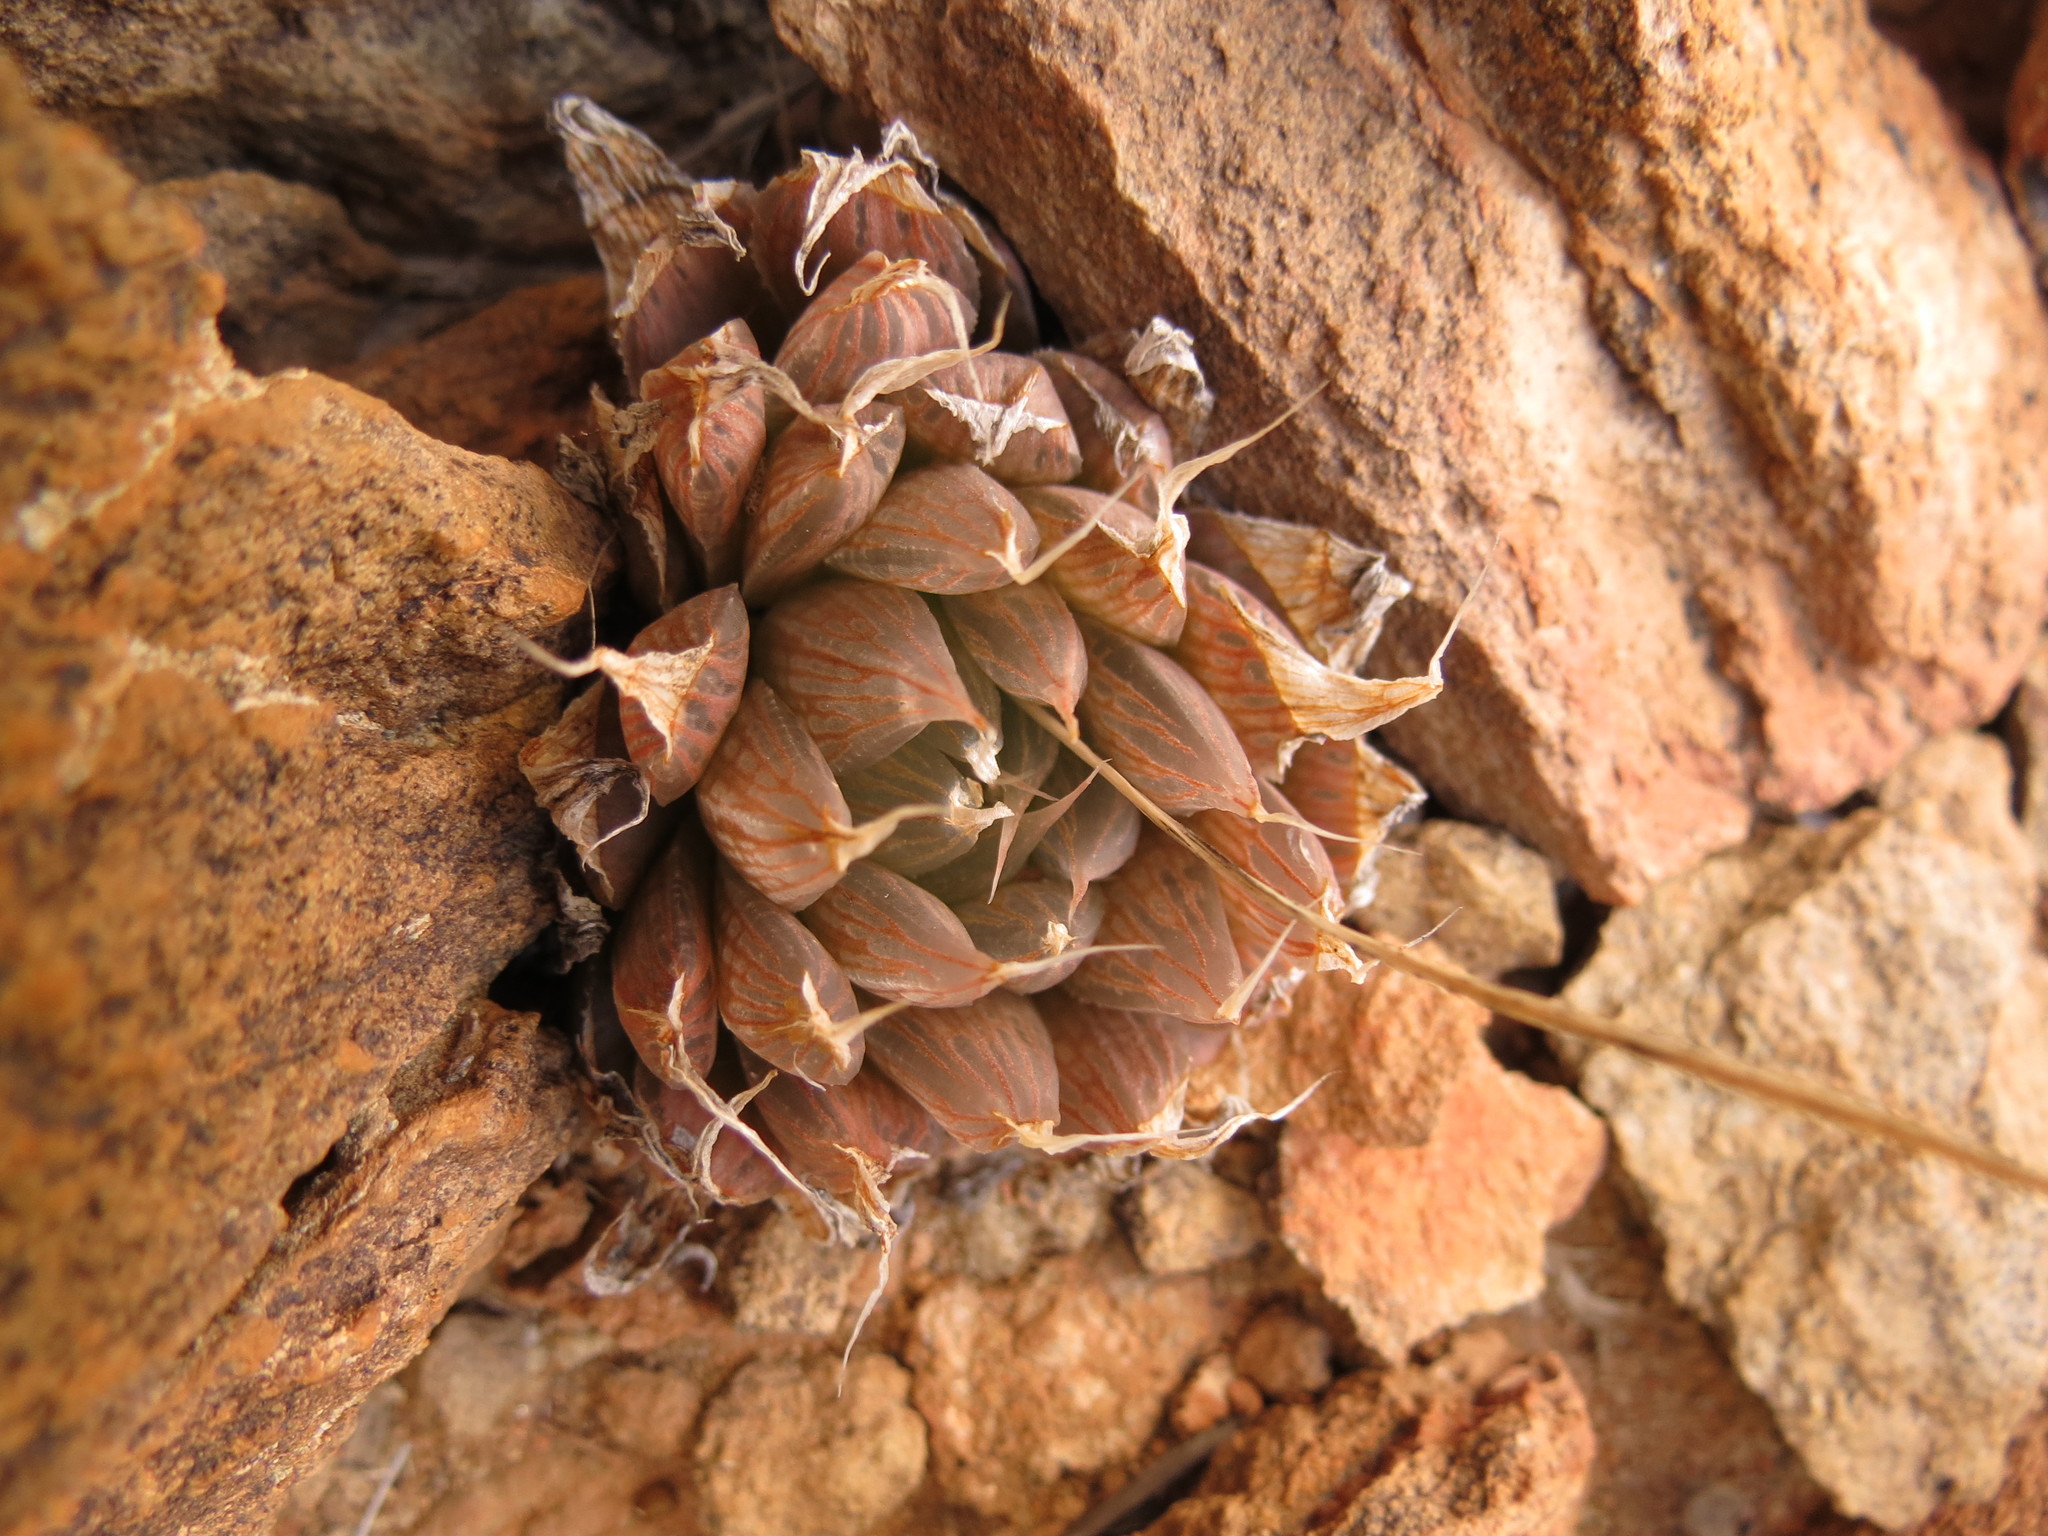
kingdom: Plantae
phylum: Tracheophyta
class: Liliopsida
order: Asparagales
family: Asphodelaceae
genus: Haworthia
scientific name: Haworthia mucronata
